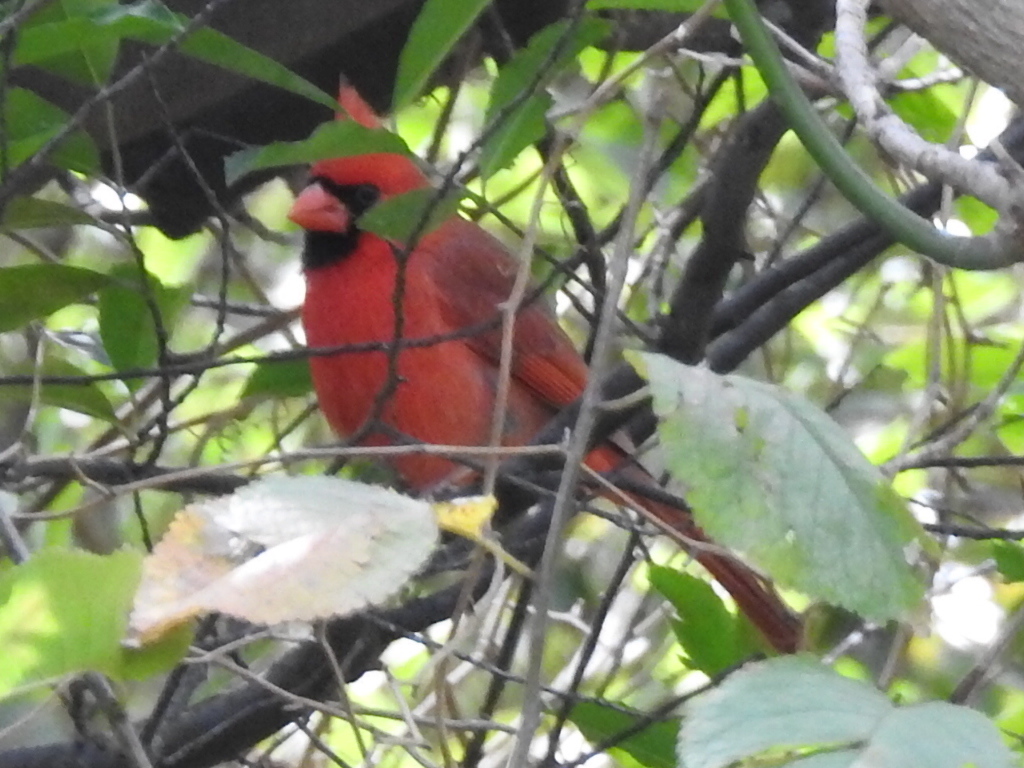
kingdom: Animalia
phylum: Chordata
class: Aves
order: Passeriformes
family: Cardinalidae
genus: Cardinalis
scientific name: Cardinalis cardinalis
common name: Northern cardinal
